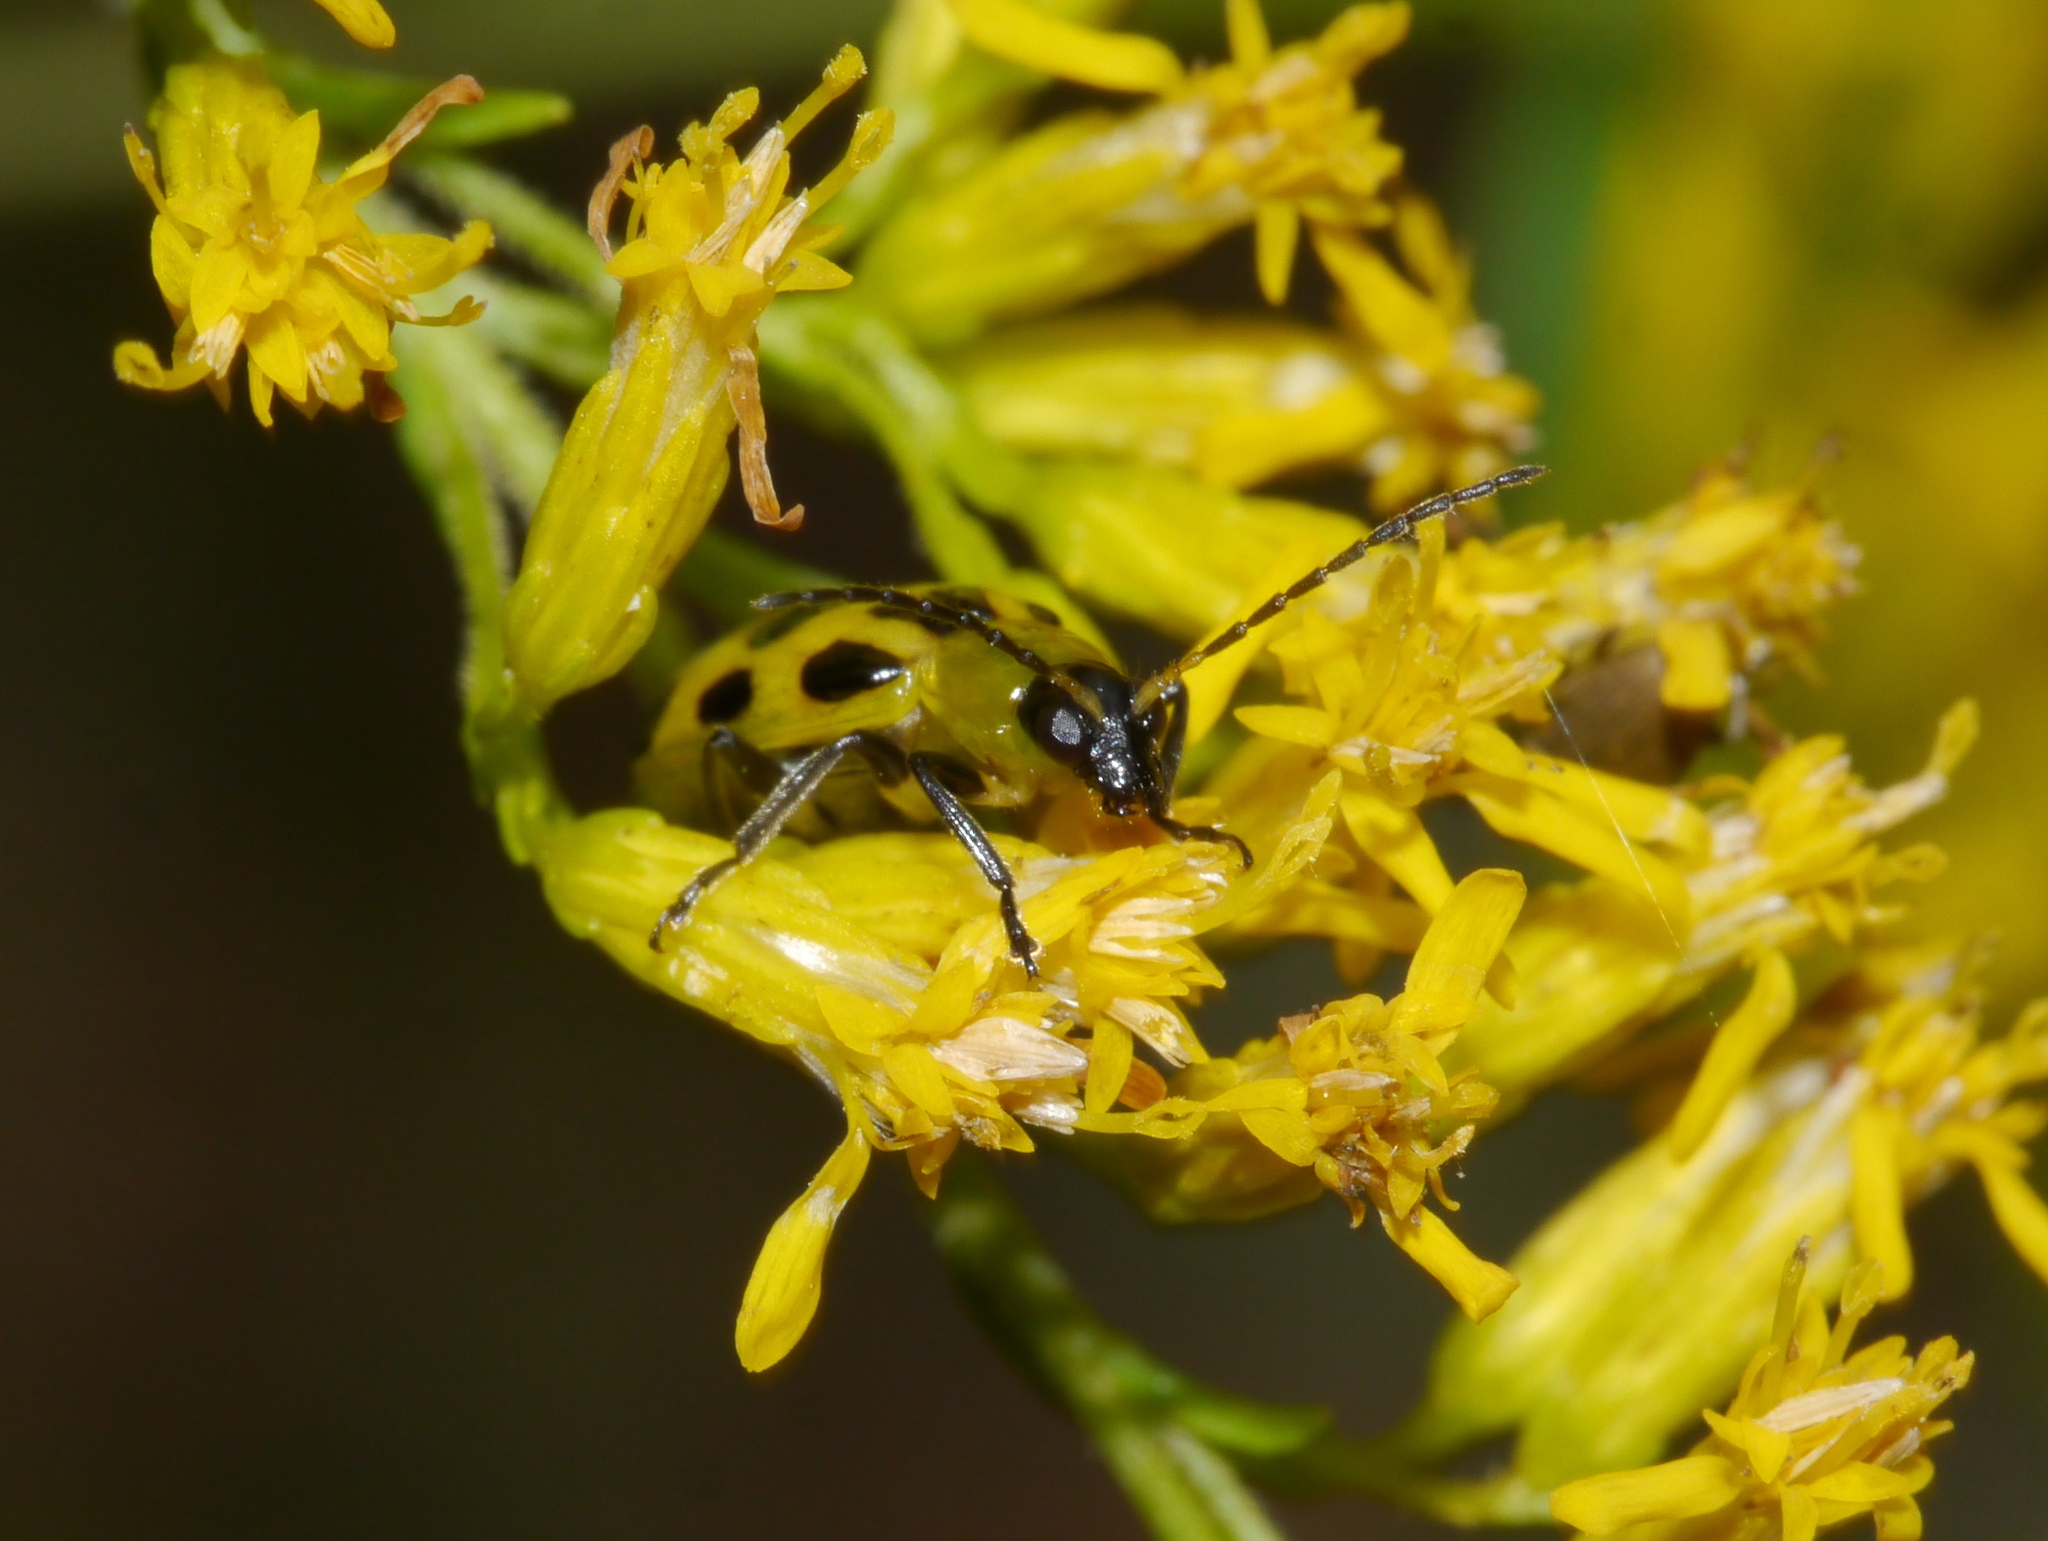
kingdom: Animalia
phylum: Arthropoda
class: Insecta
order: Coleoptera
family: Chrysomelidae
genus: Diabrotica
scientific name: Diabrotica undecimpunctata
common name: Spotted cucumber beetle
